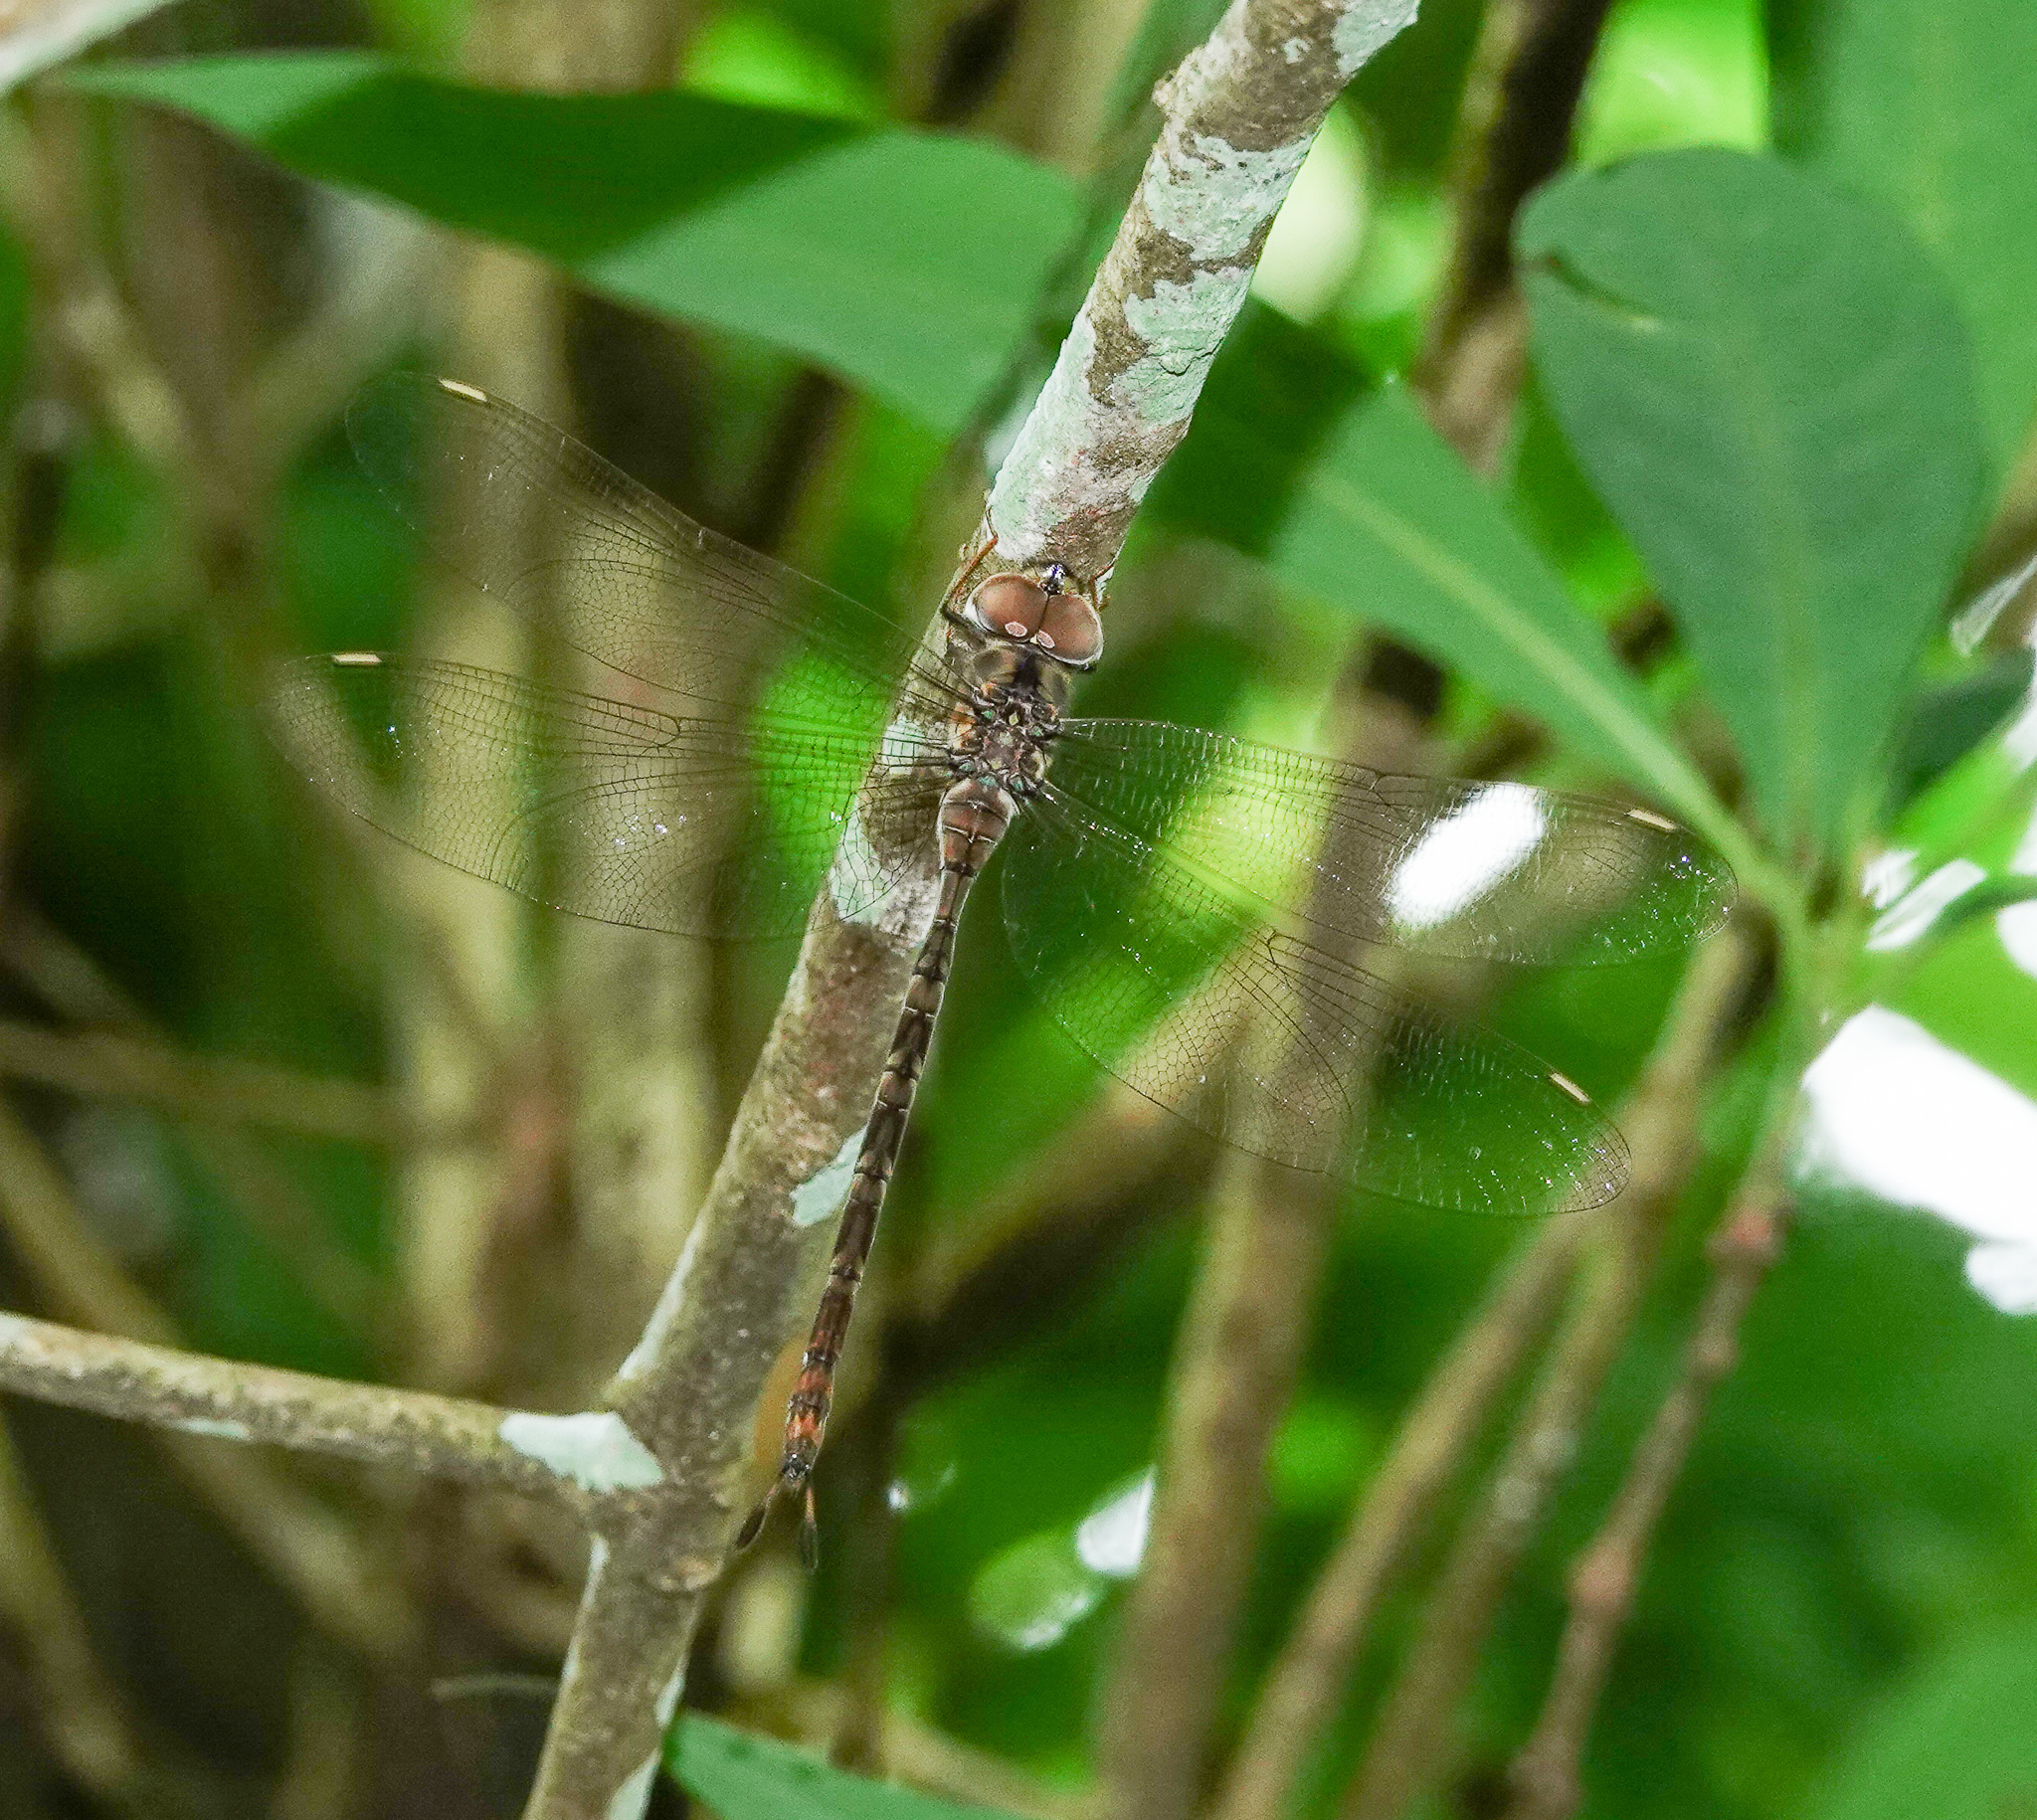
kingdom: Animalia
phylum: Arthropoda
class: Insecta
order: Odonata
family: Aeshnidae
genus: Gynacantha
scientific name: Gynacantha dravida
